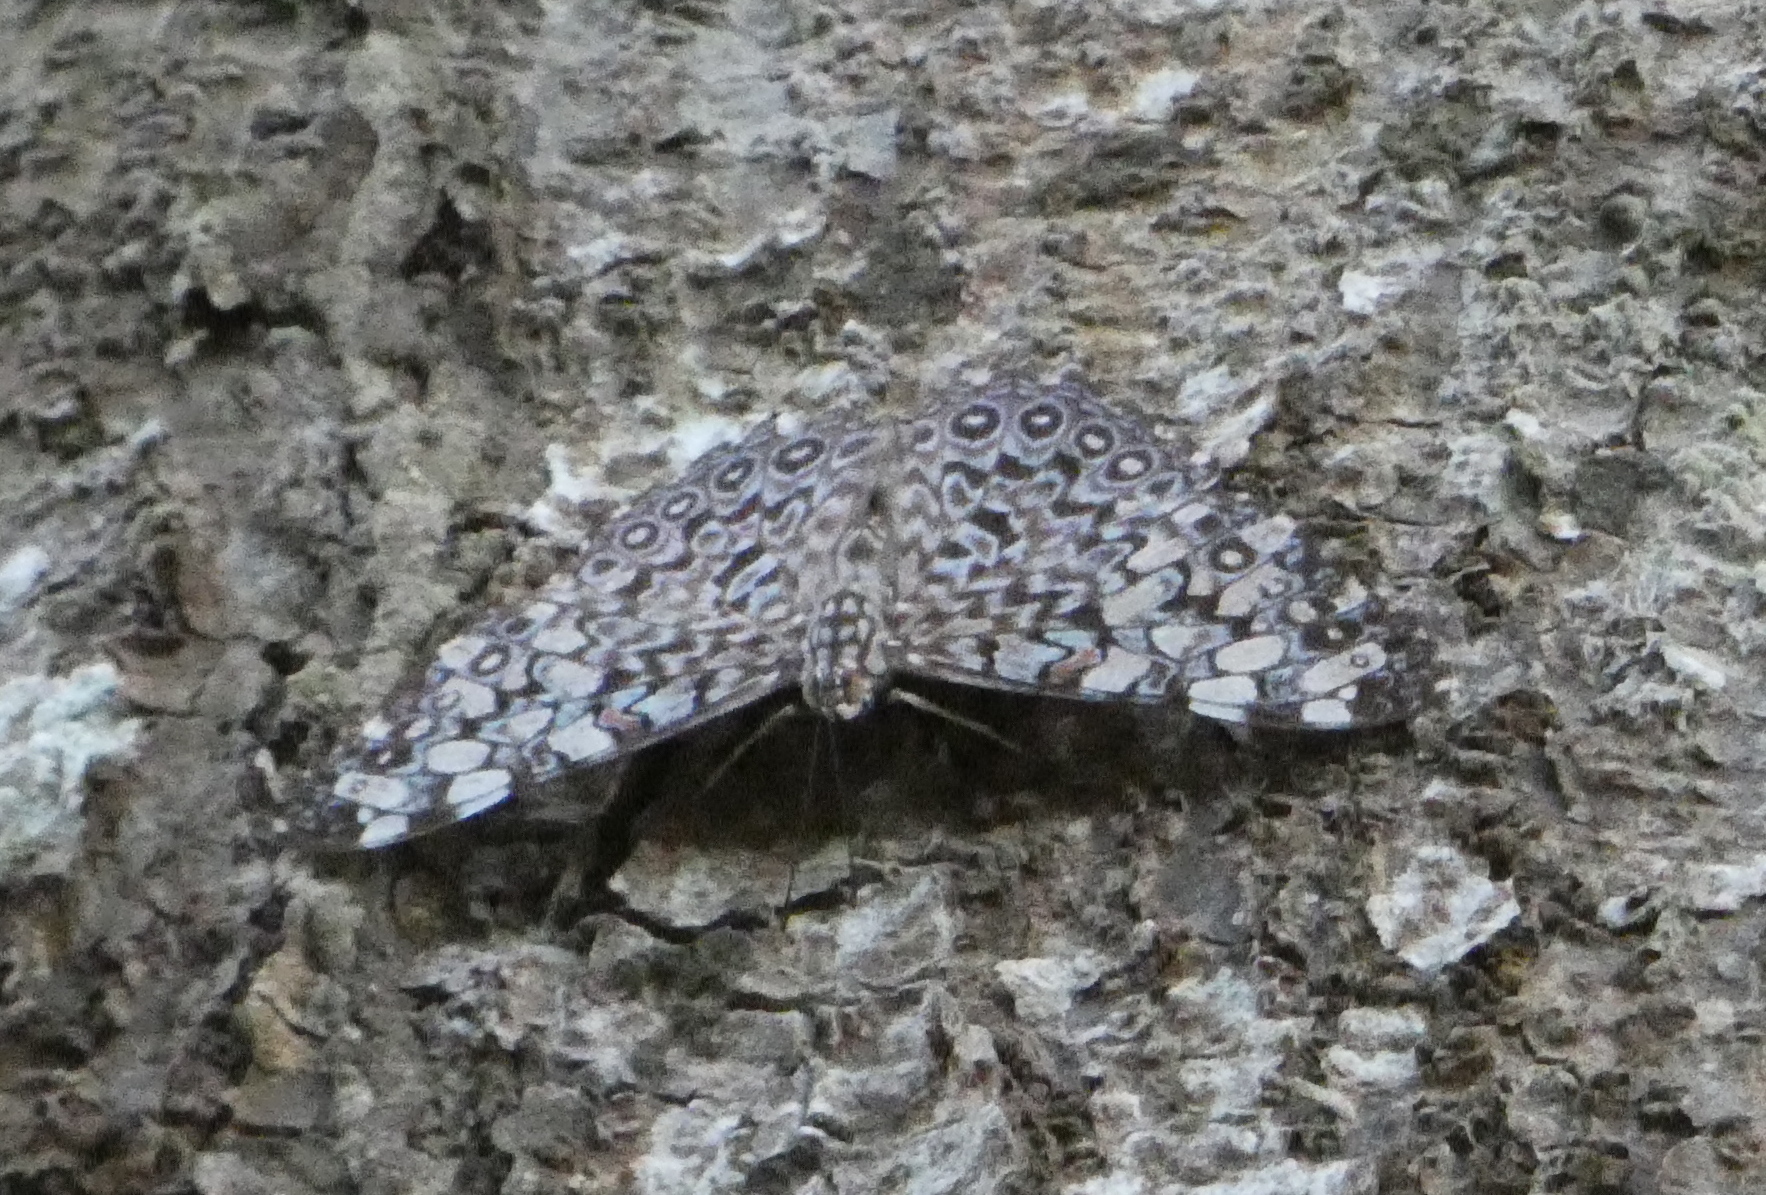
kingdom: Animalia
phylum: Arthropoda
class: Insecta
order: Lepidoptera
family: Nymphalidae
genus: Hamadryas
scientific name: Hamadryas feronia
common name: Variable cracker
